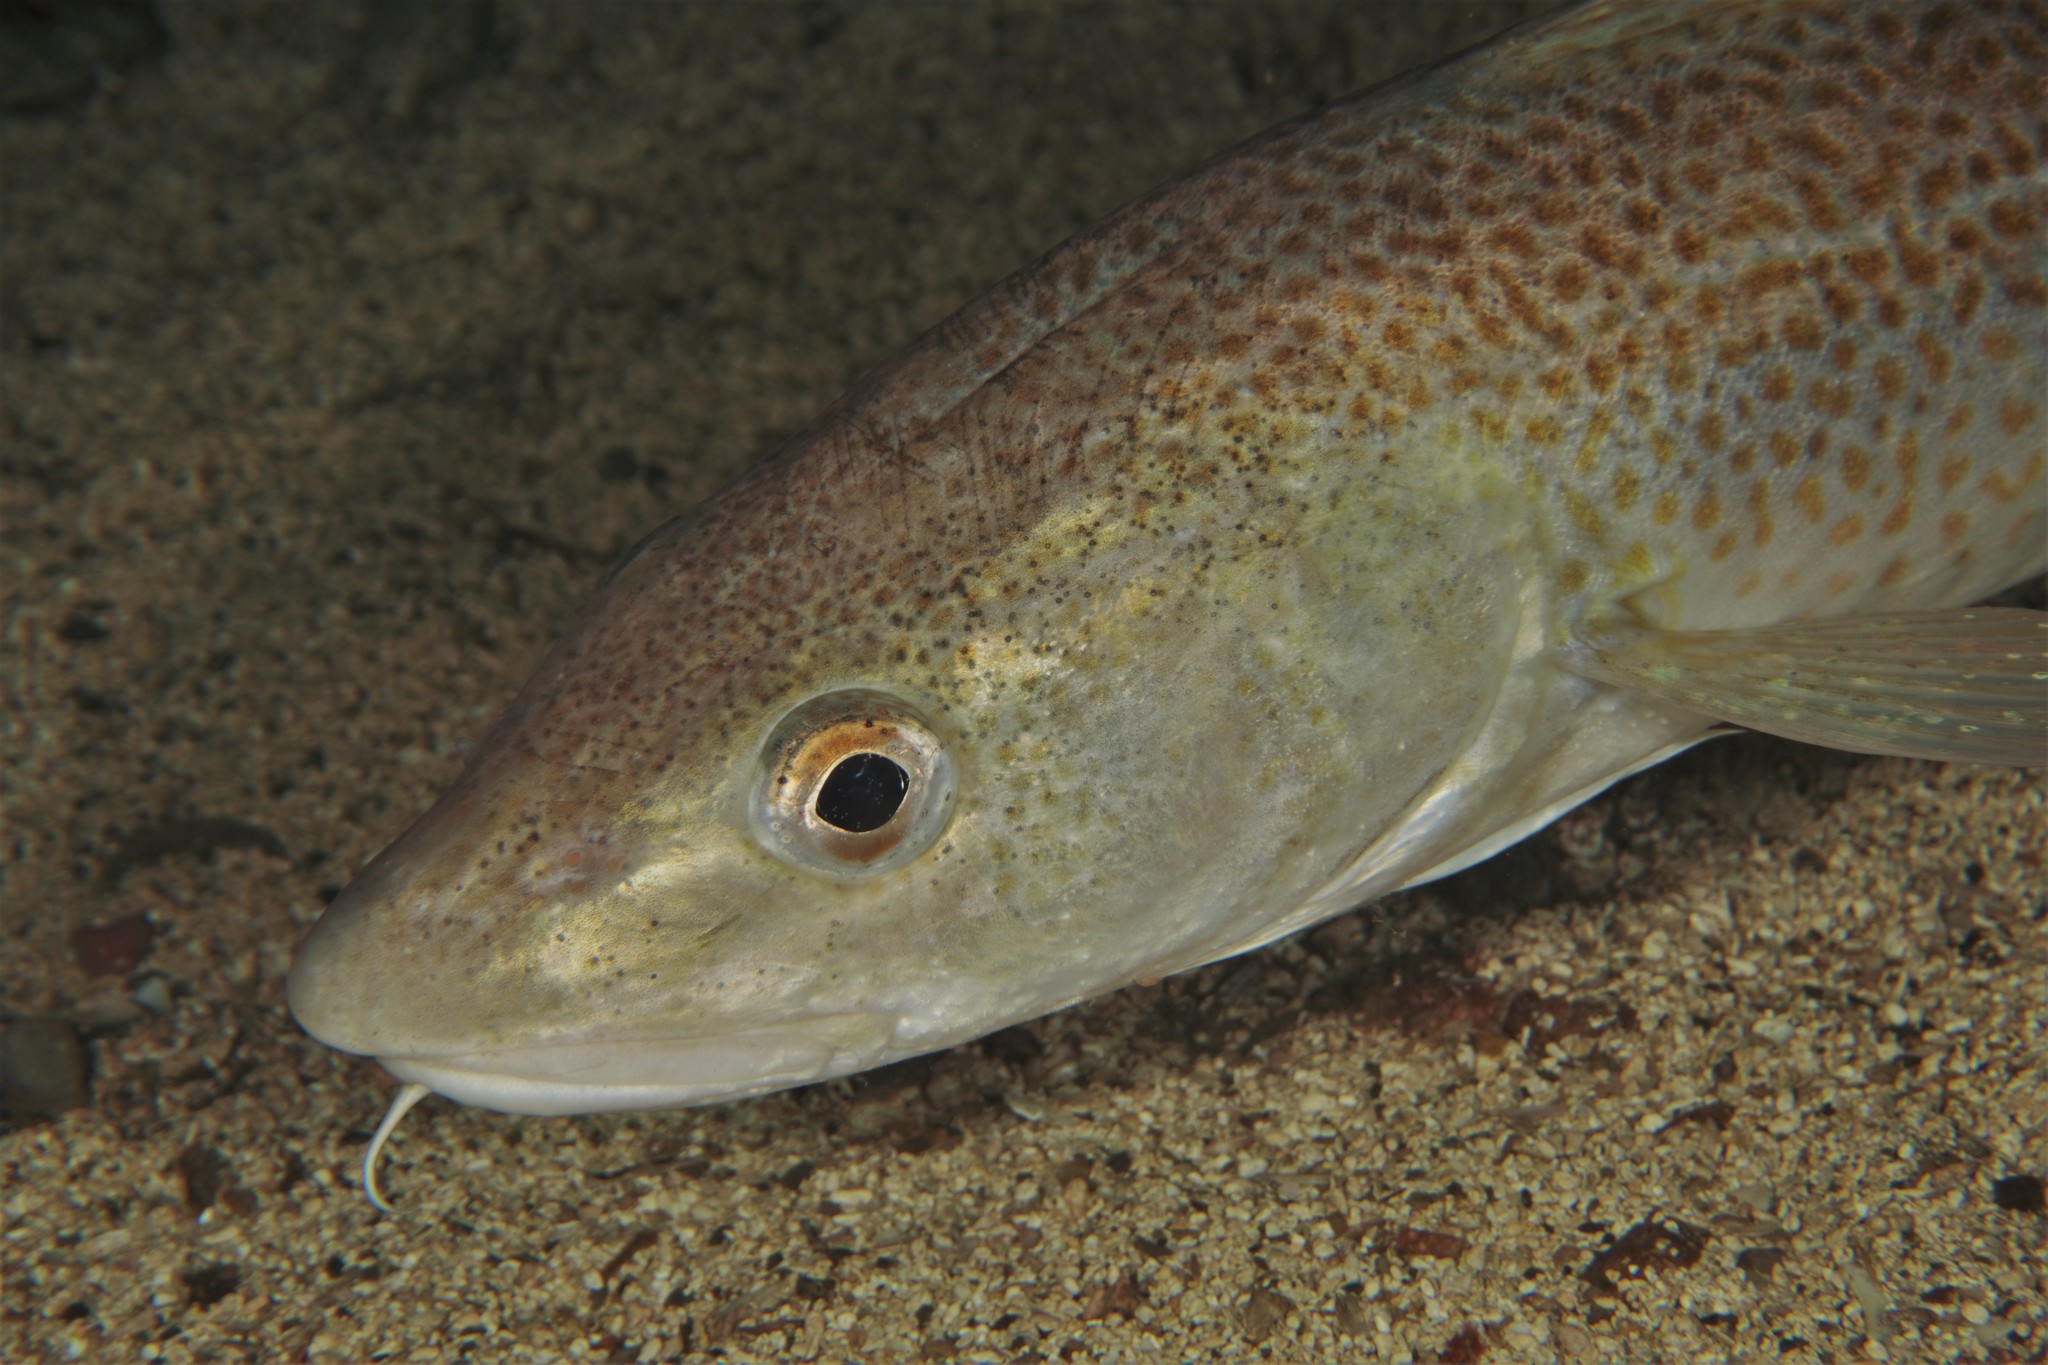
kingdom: Animalia
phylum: Chordata
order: Gadiformes
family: Gadidae
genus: Gadus
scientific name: Gadus morhua
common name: Atlantic cod
